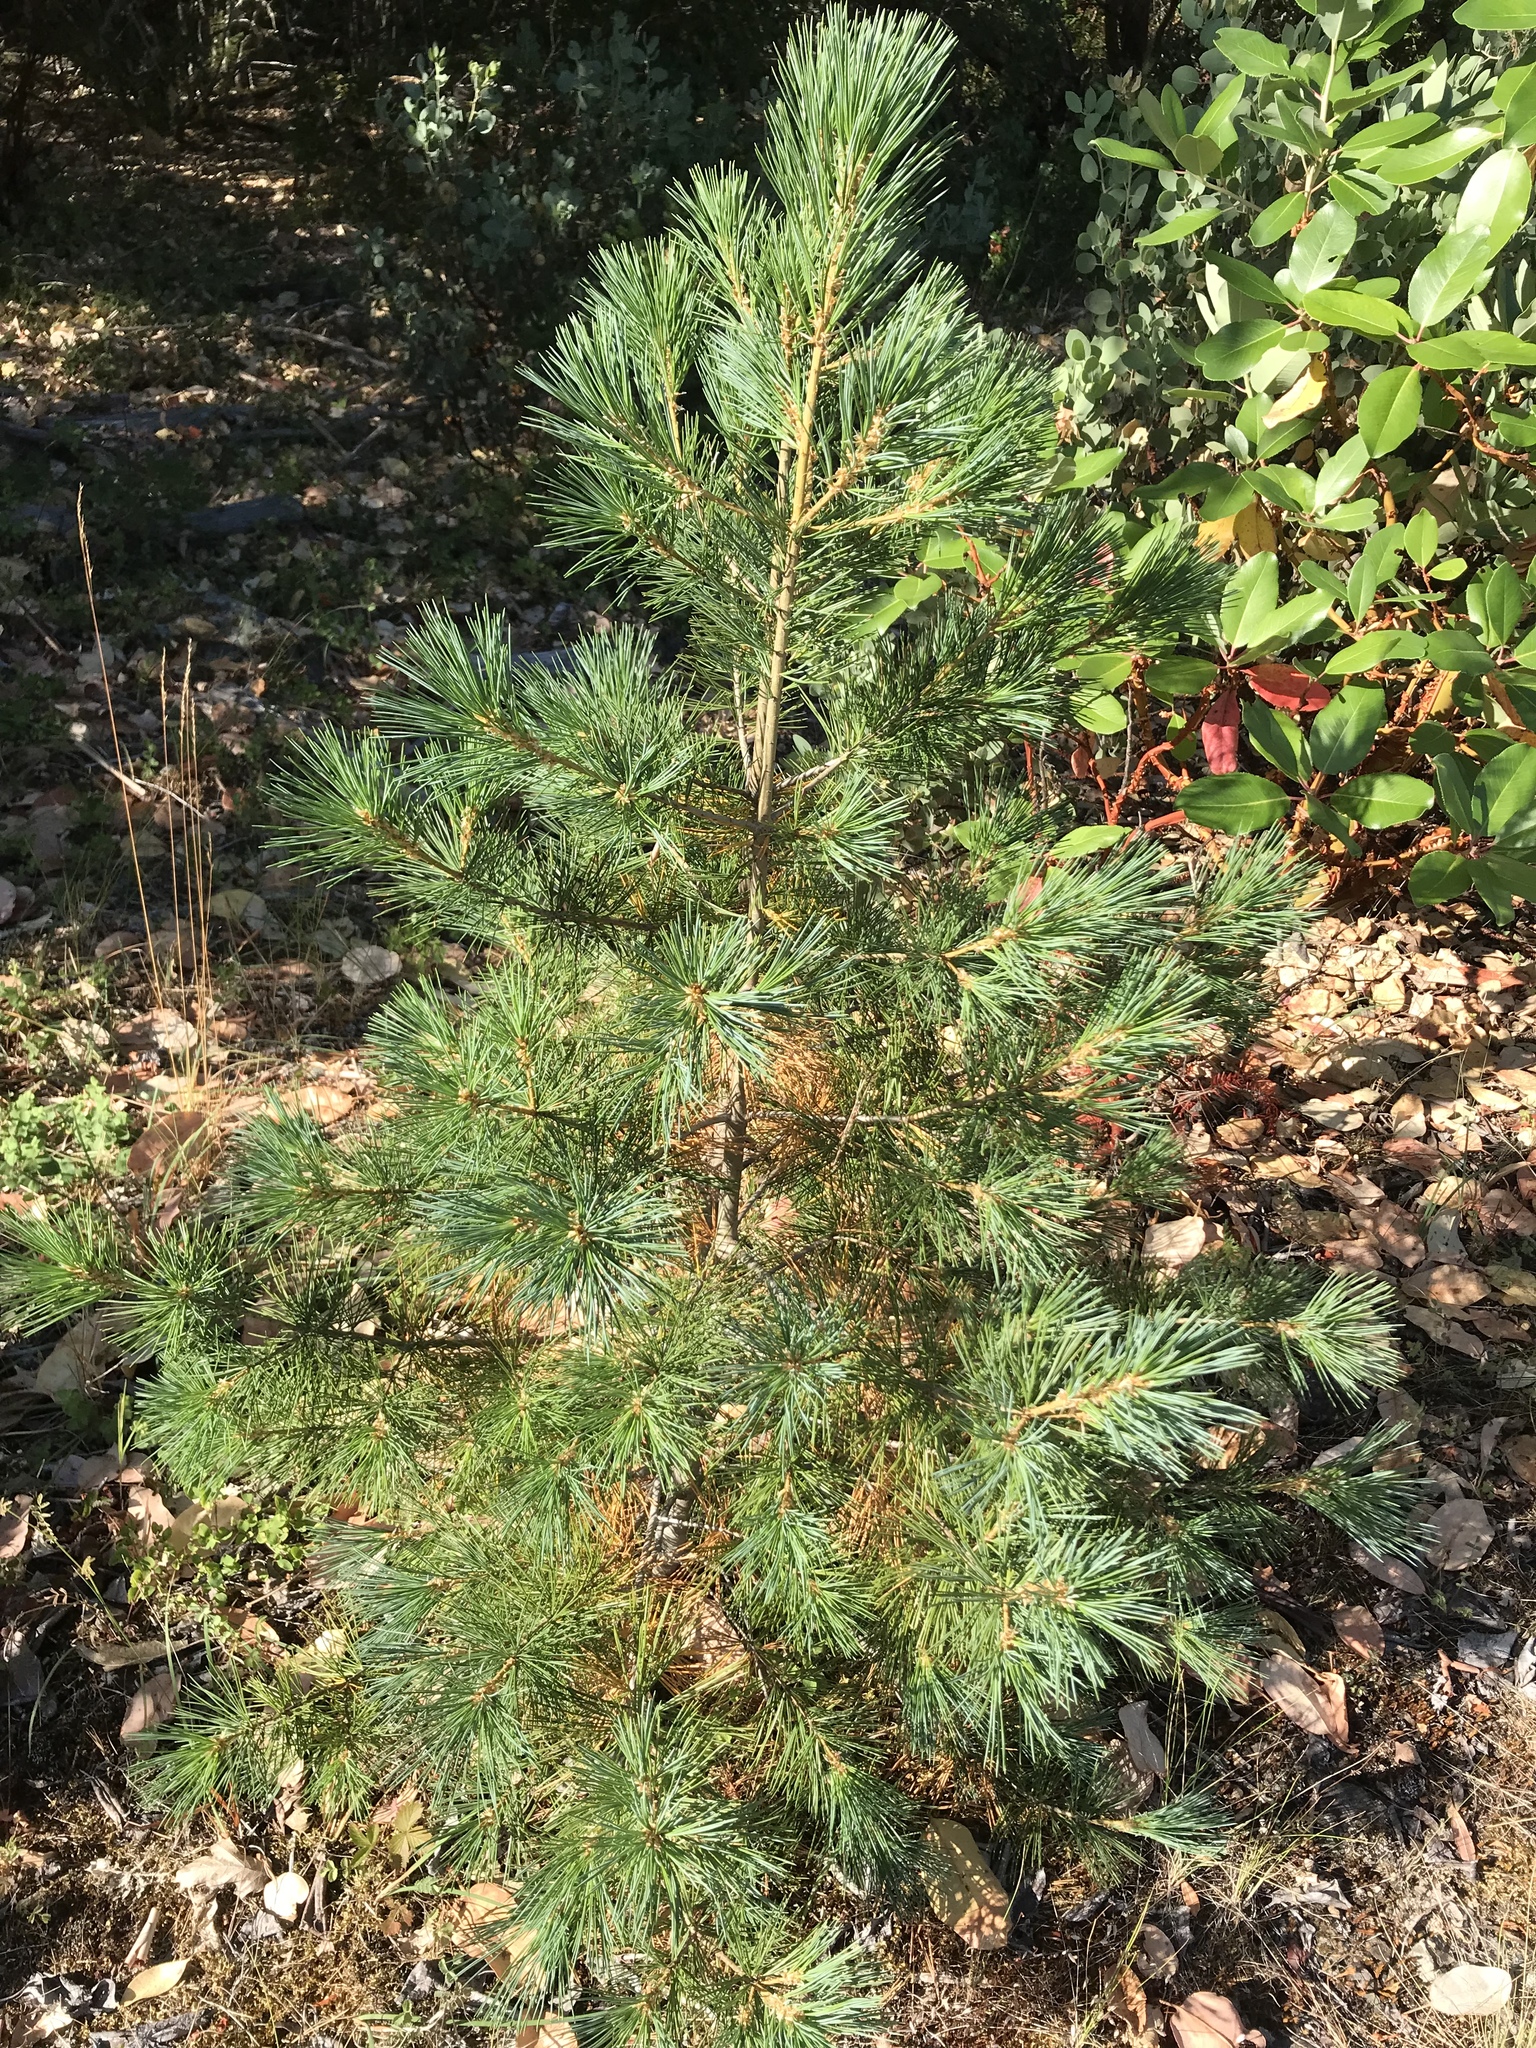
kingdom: Plantae
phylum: Tracheophyta
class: Pinopsida
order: Pinales
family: Pinaceae
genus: Pinus
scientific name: Pinus lambertiana
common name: Sugar pine
